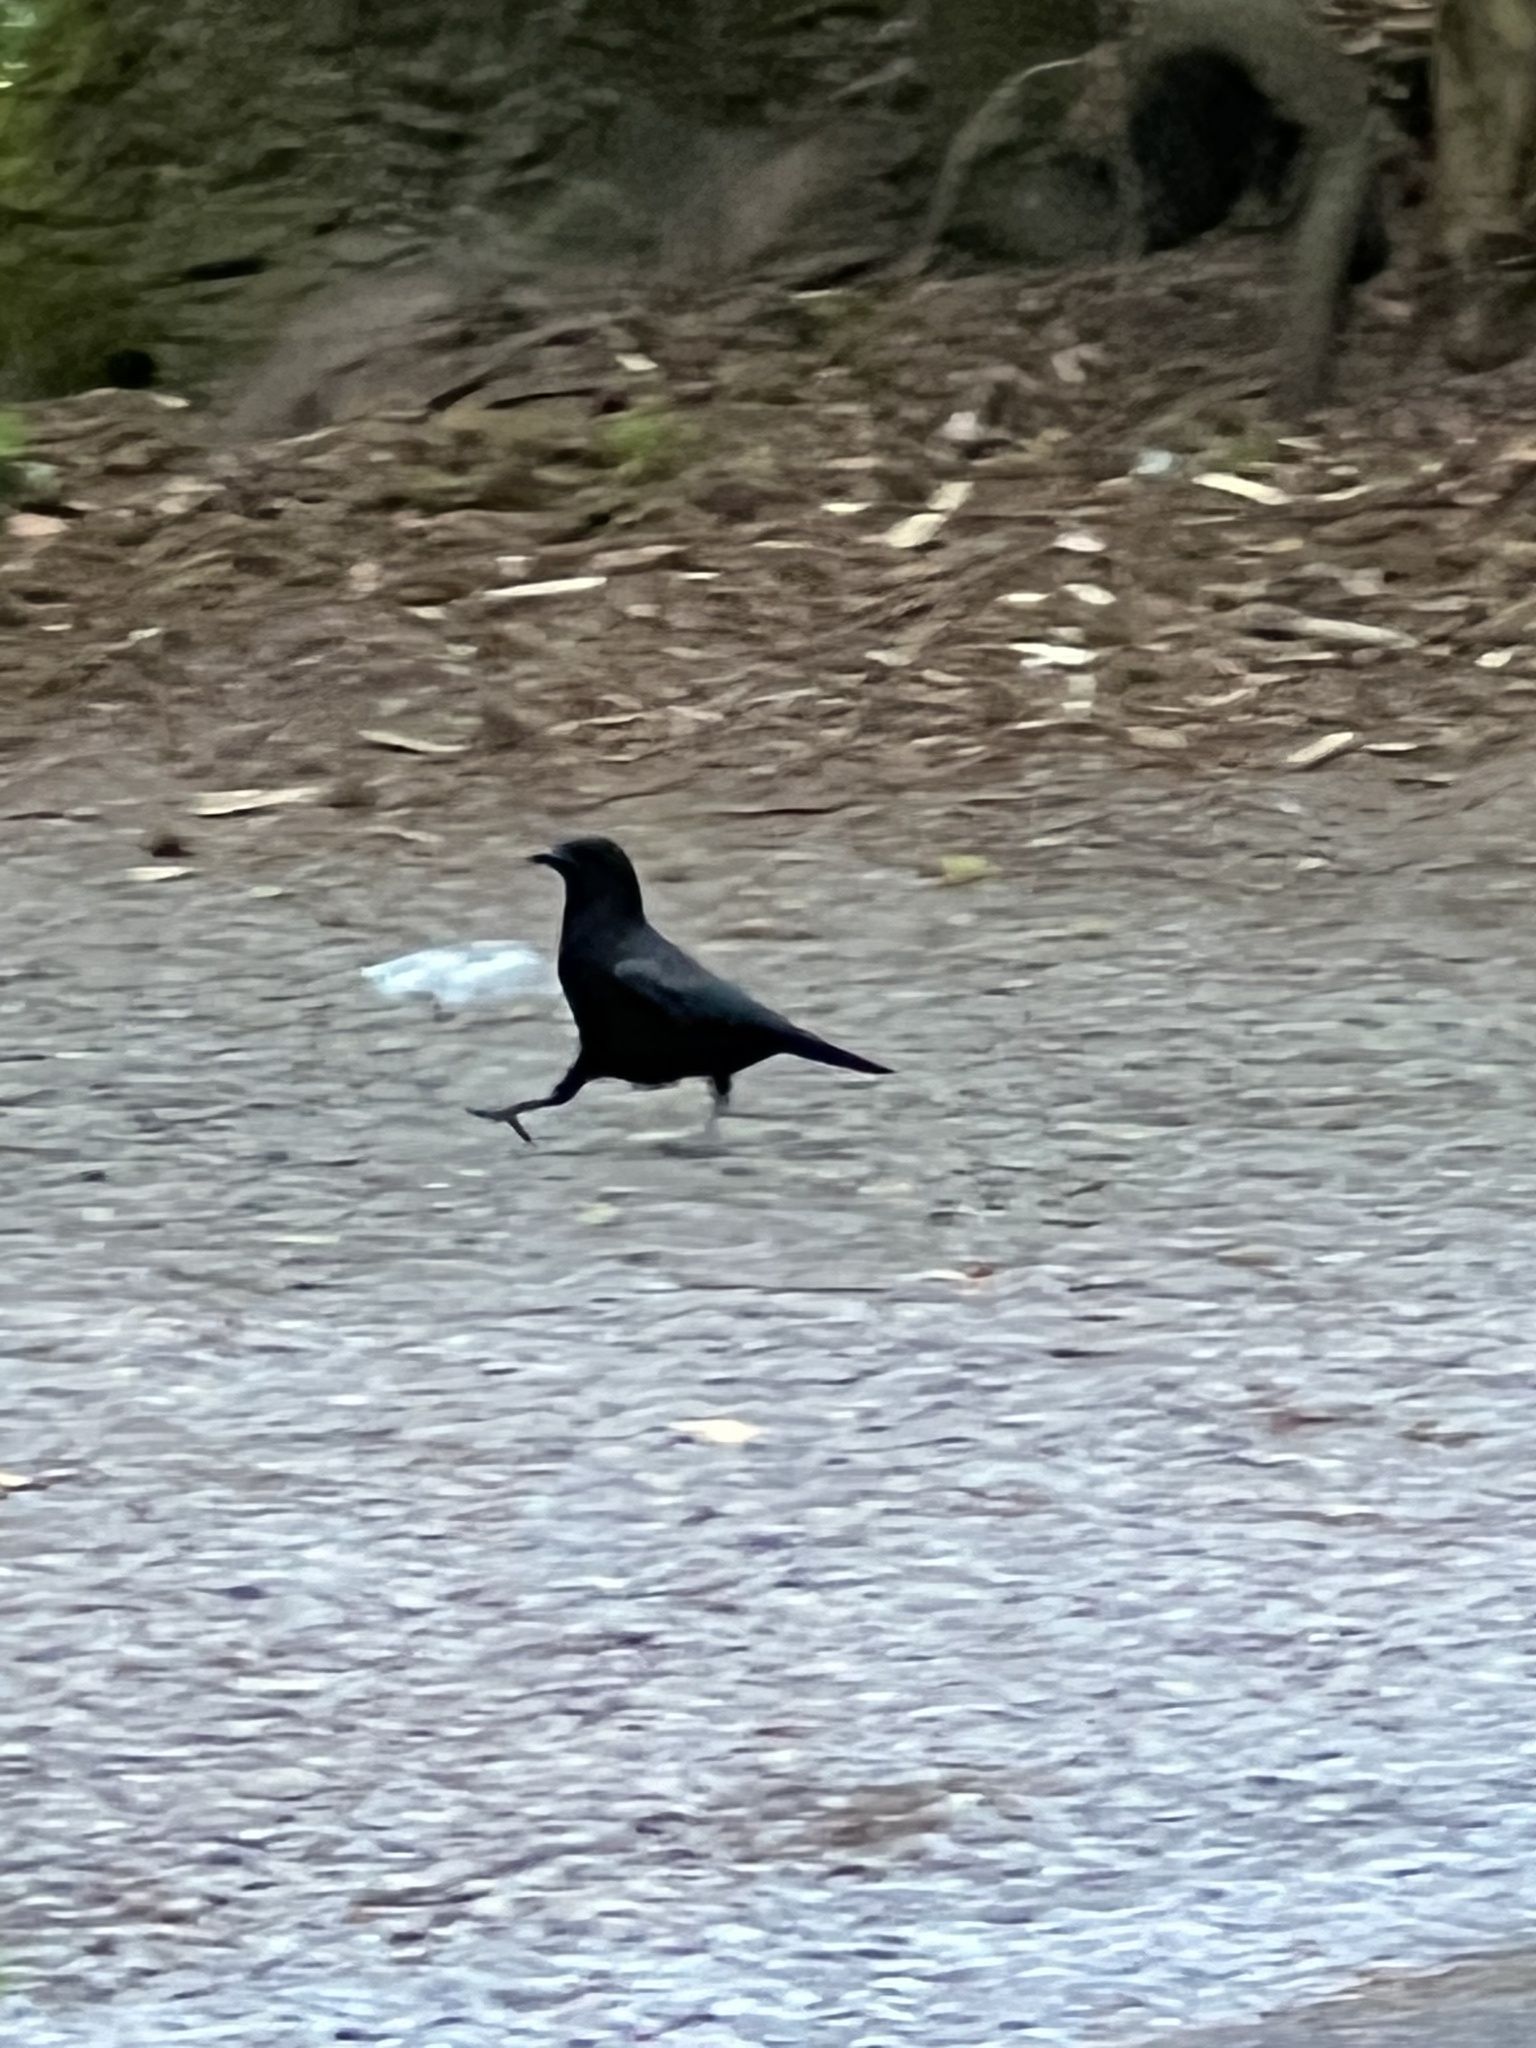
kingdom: Animalia
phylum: Chordata
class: Aves
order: Passeriformes
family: Corvidae
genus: Corvus
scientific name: Corvus brachyrhynchos
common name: American crow
